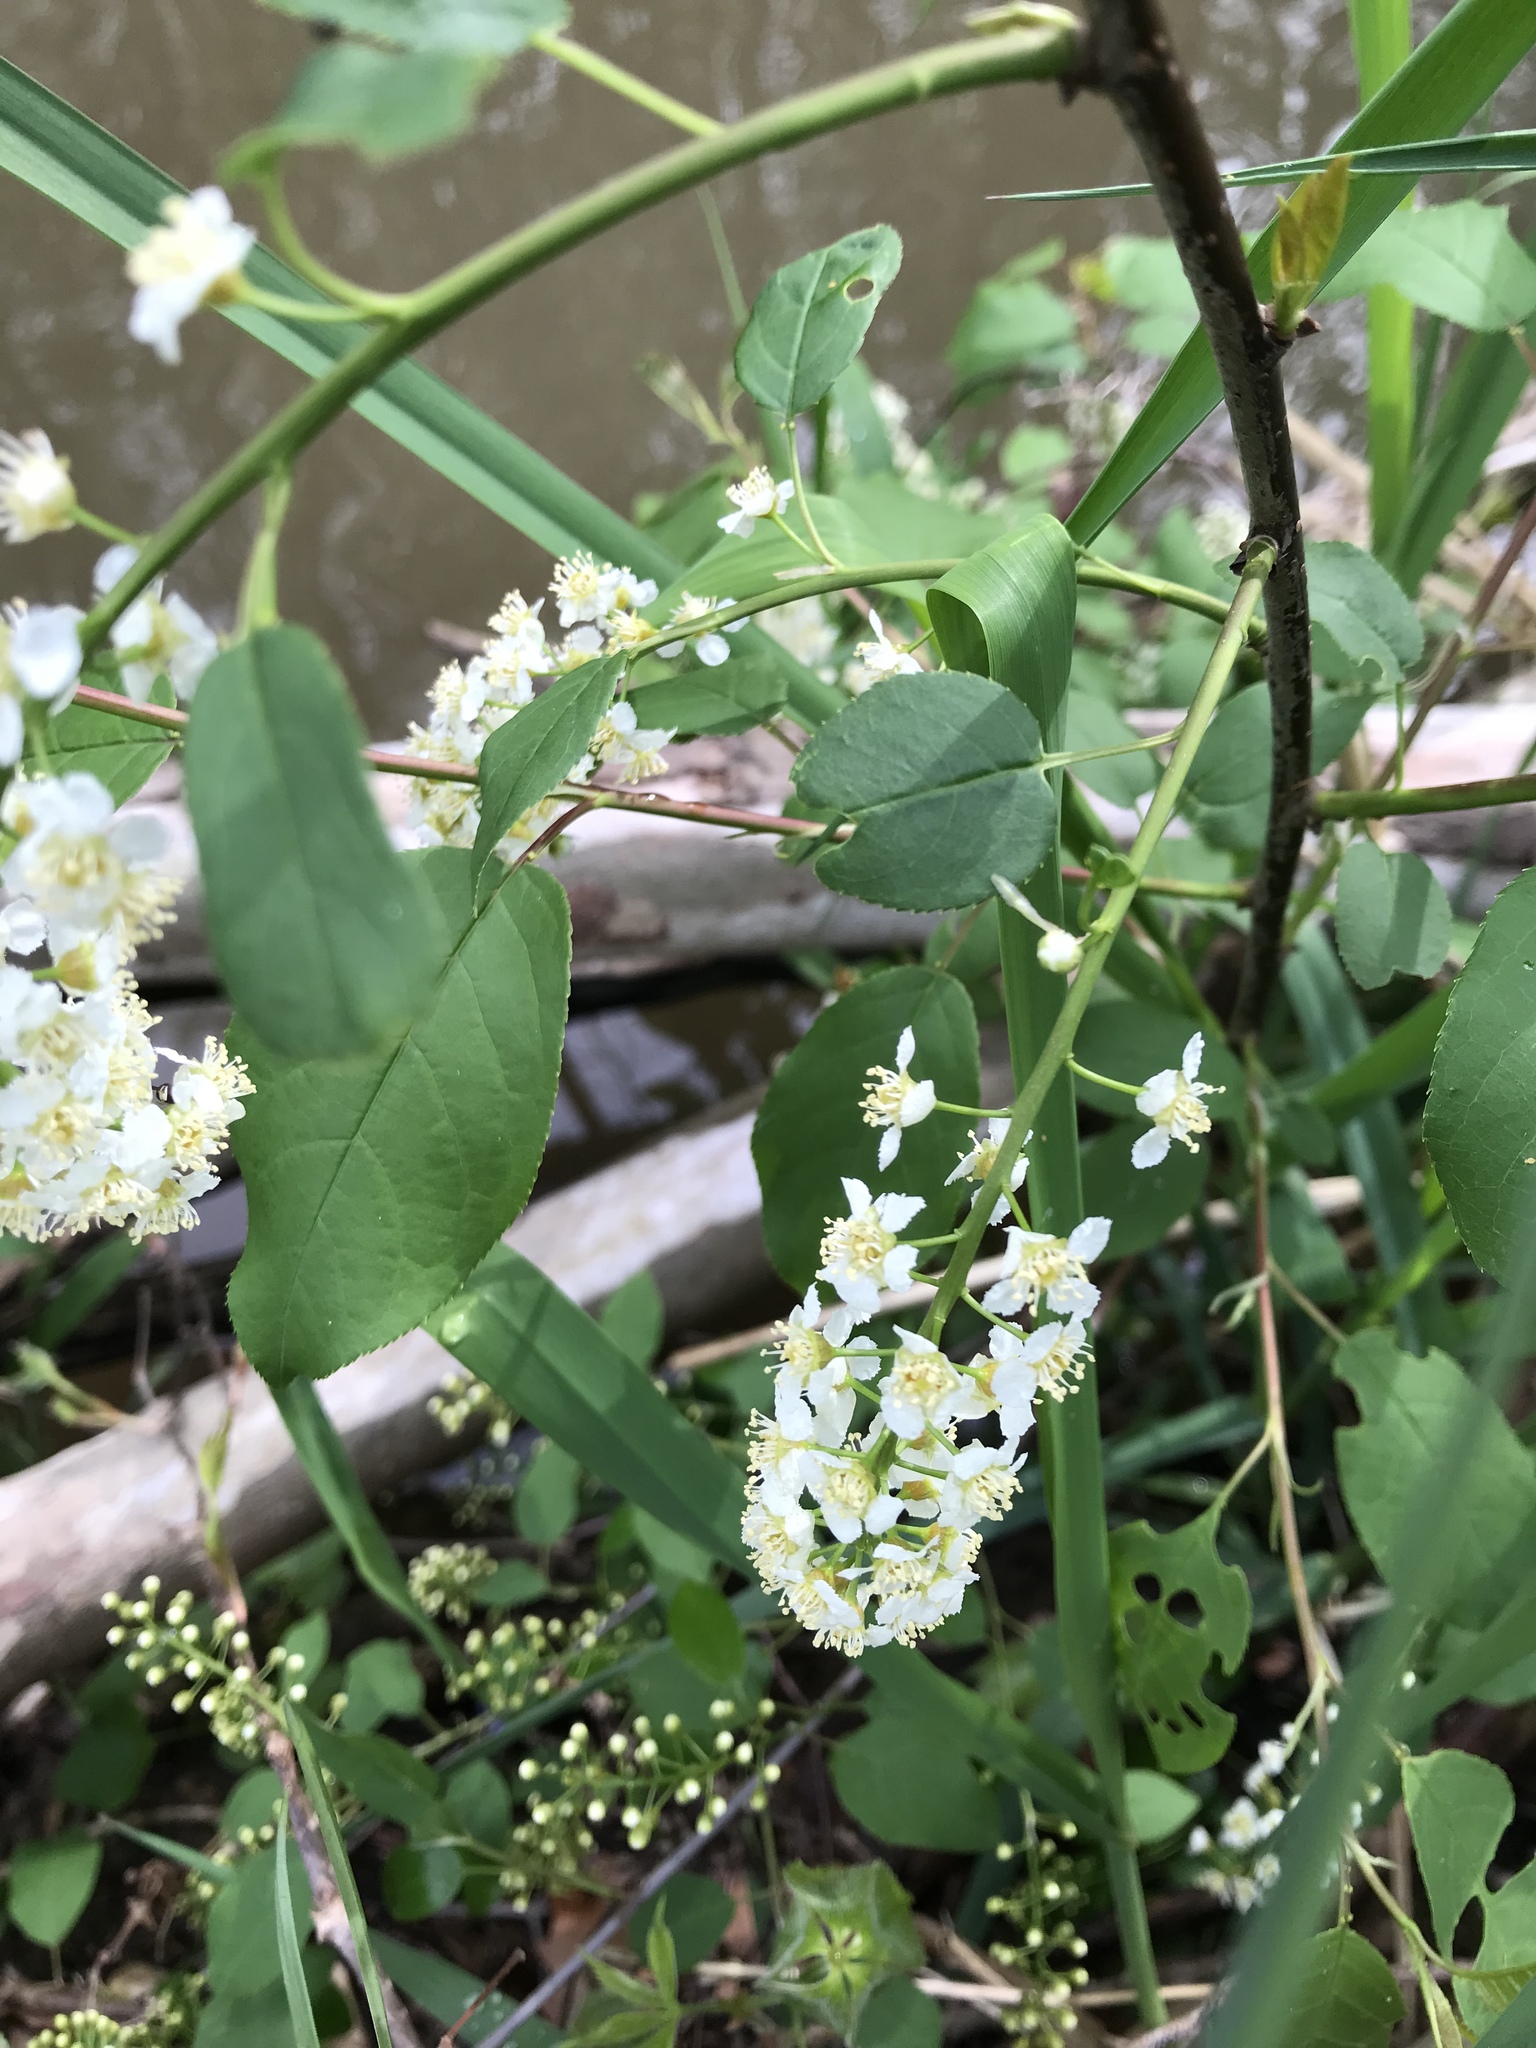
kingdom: Plantae
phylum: Tracheophyta
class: Magnoliopsida
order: Rosales
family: Rosaceae
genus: Prunus
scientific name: Prunus serotina
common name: Black cherry
